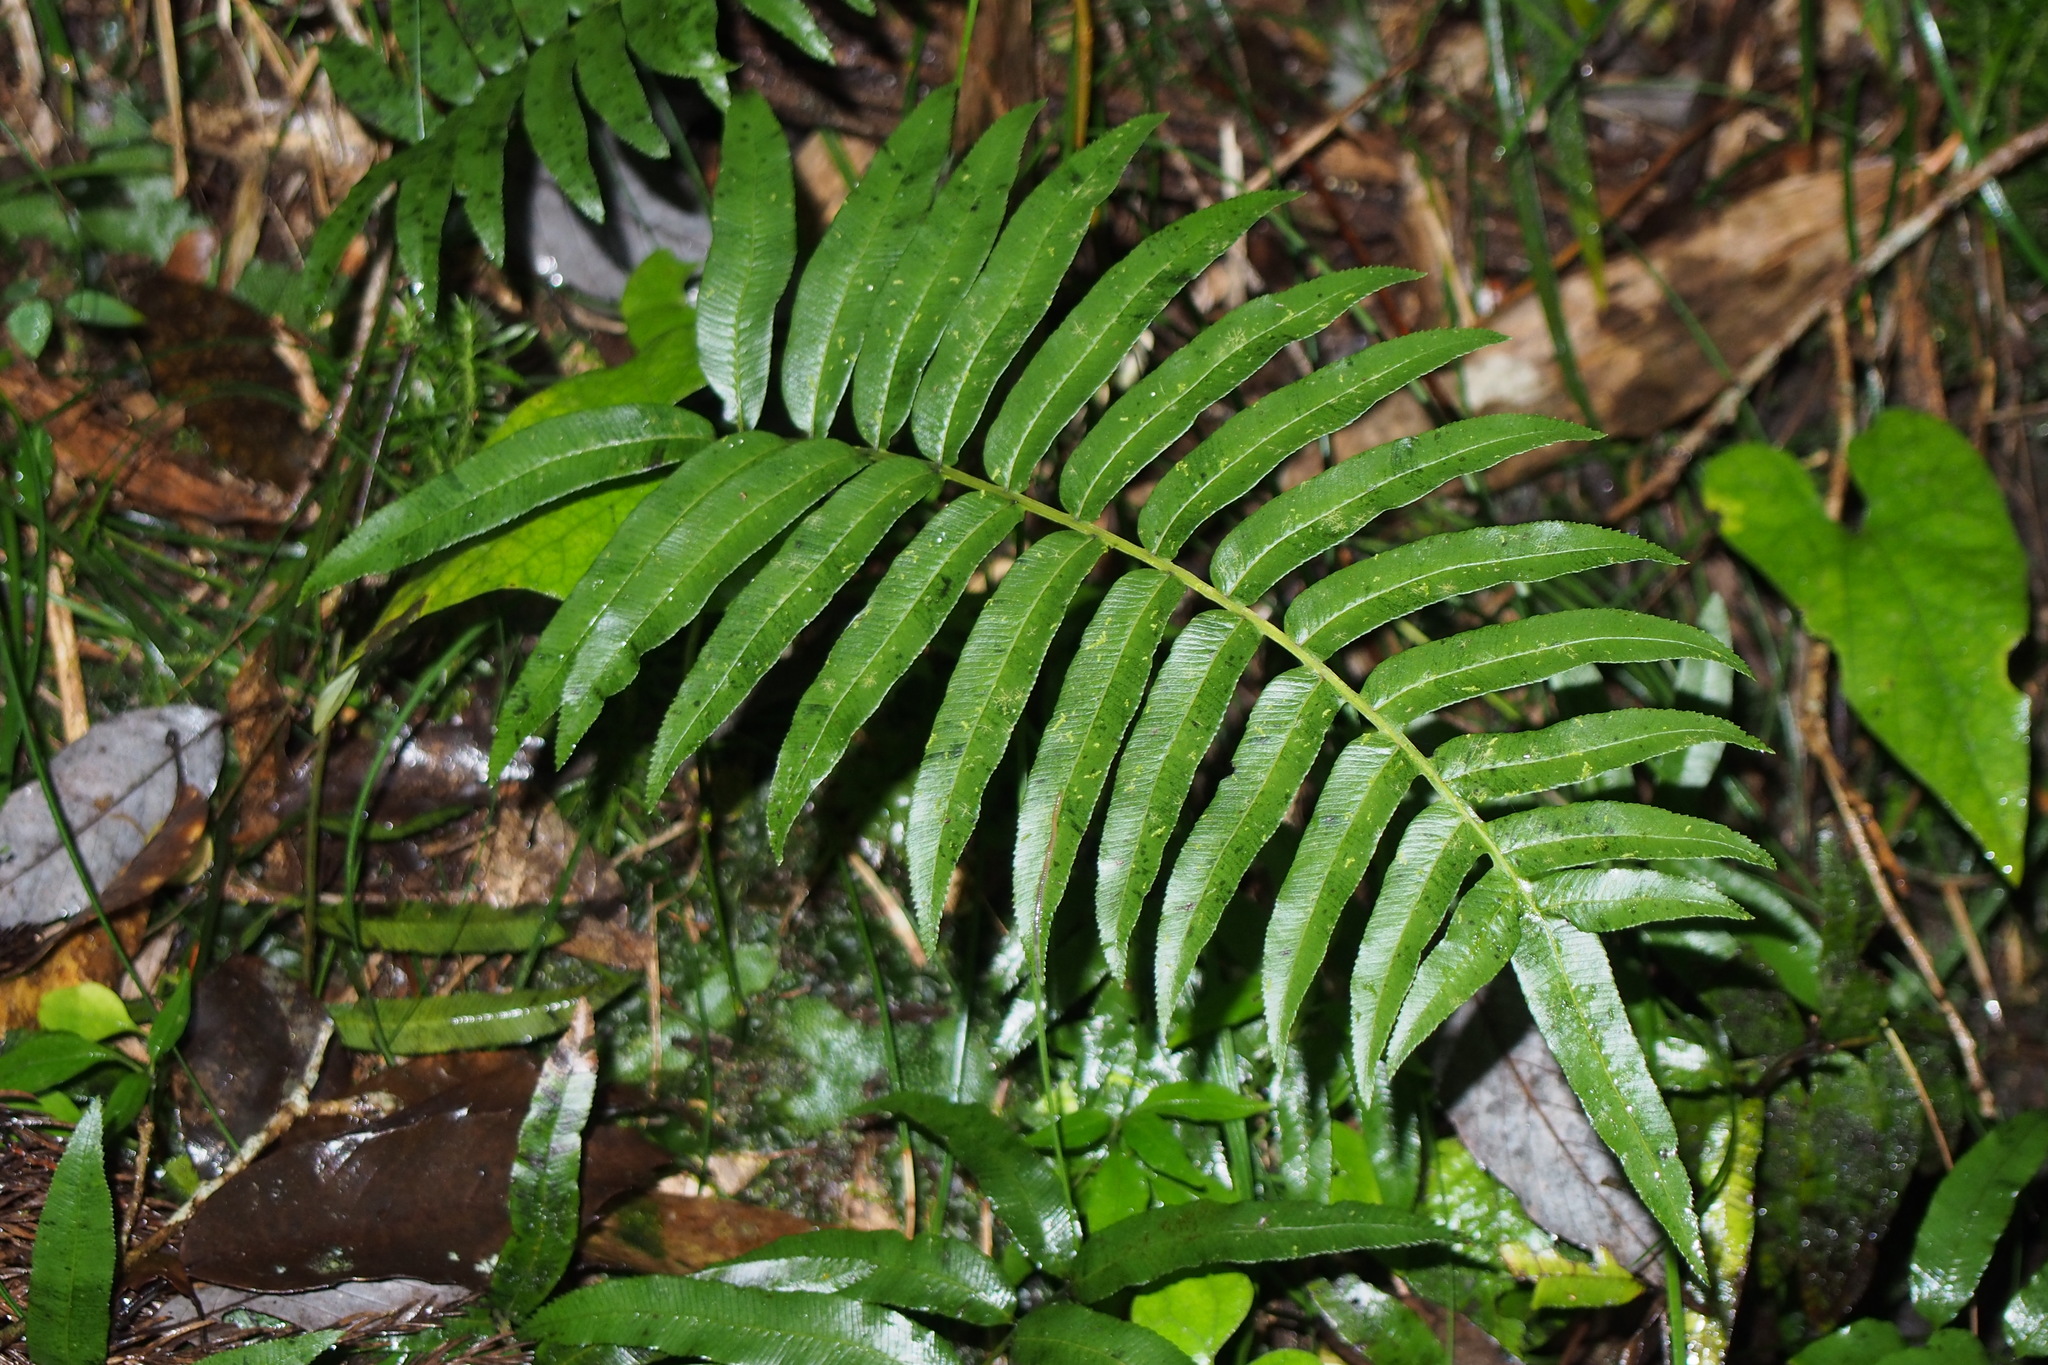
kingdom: Plantae
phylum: Tracheophyta
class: Polypodiopsida
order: Cyatheales
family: Plagiogyriaceae
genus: Plagiogyria
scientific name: Plagiogyria japonica
